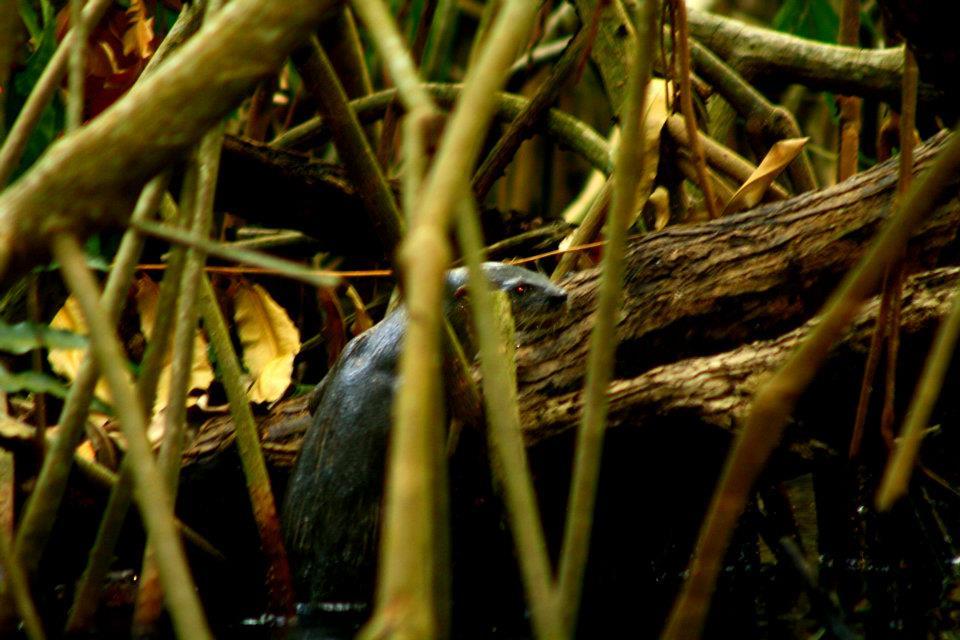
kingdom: Animalia
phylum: Chordata
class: Mammalia
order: Carnivora
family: Mustelidae
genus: Lontra
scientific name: Lontra longicaudis
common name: Neotropical otter
